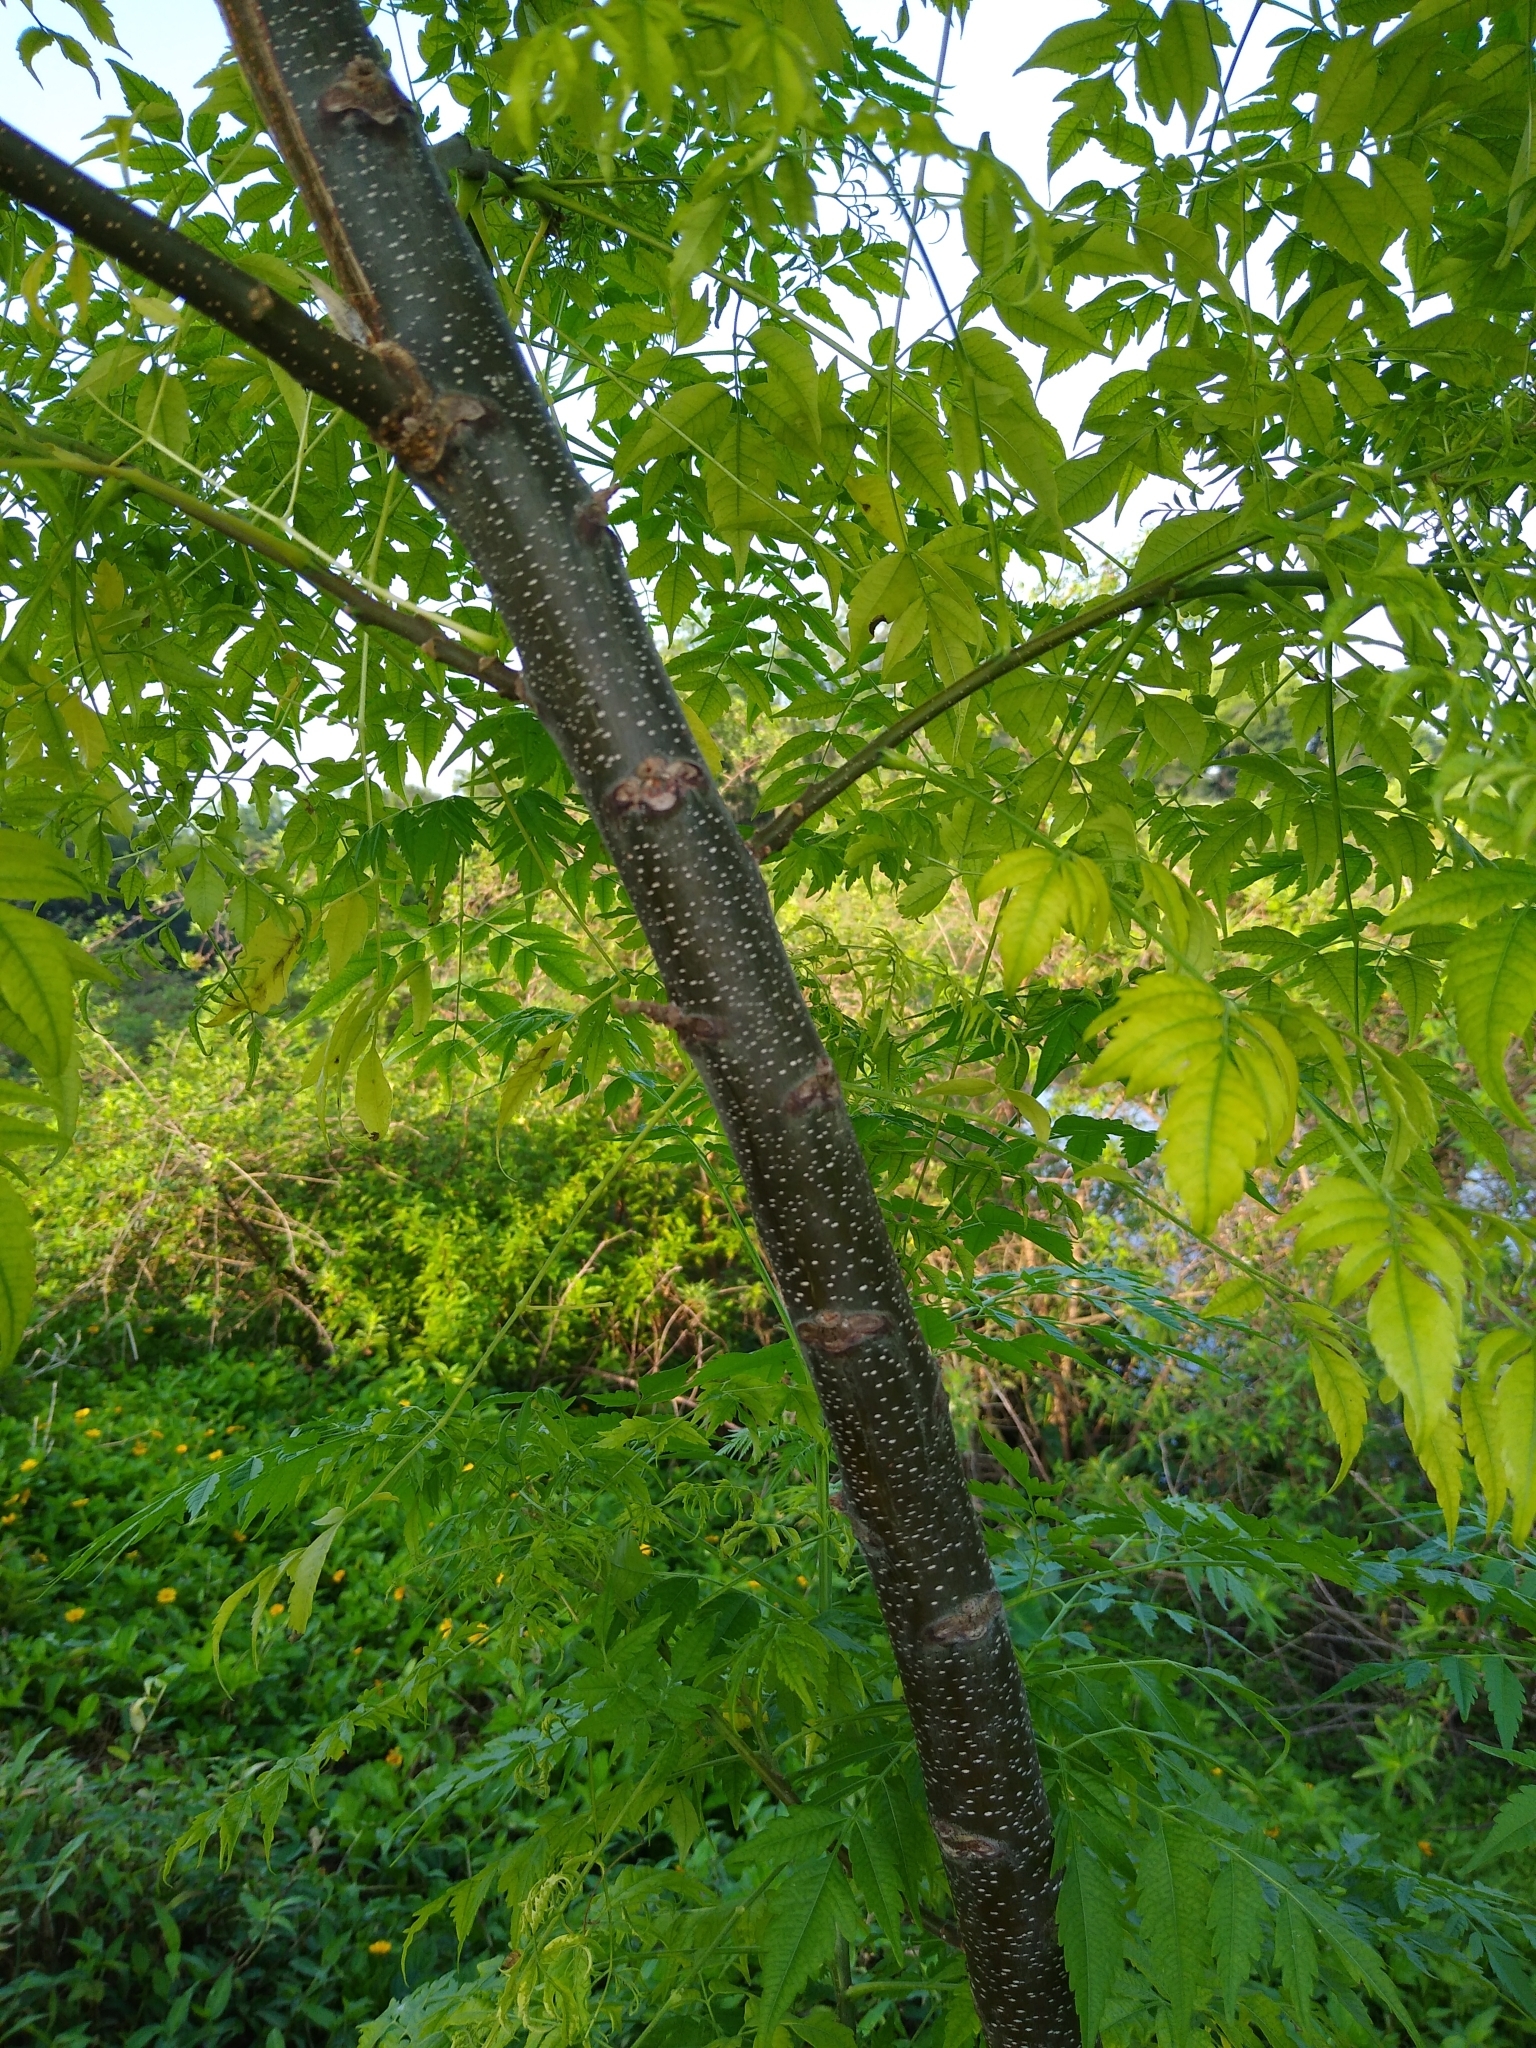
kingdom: Plantae
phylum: Tracheophyta
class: Magnoliopsida
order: Sapindales
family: Meliaceae
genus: Melia
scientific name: Melia azedarach
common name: Chinaberrytree
